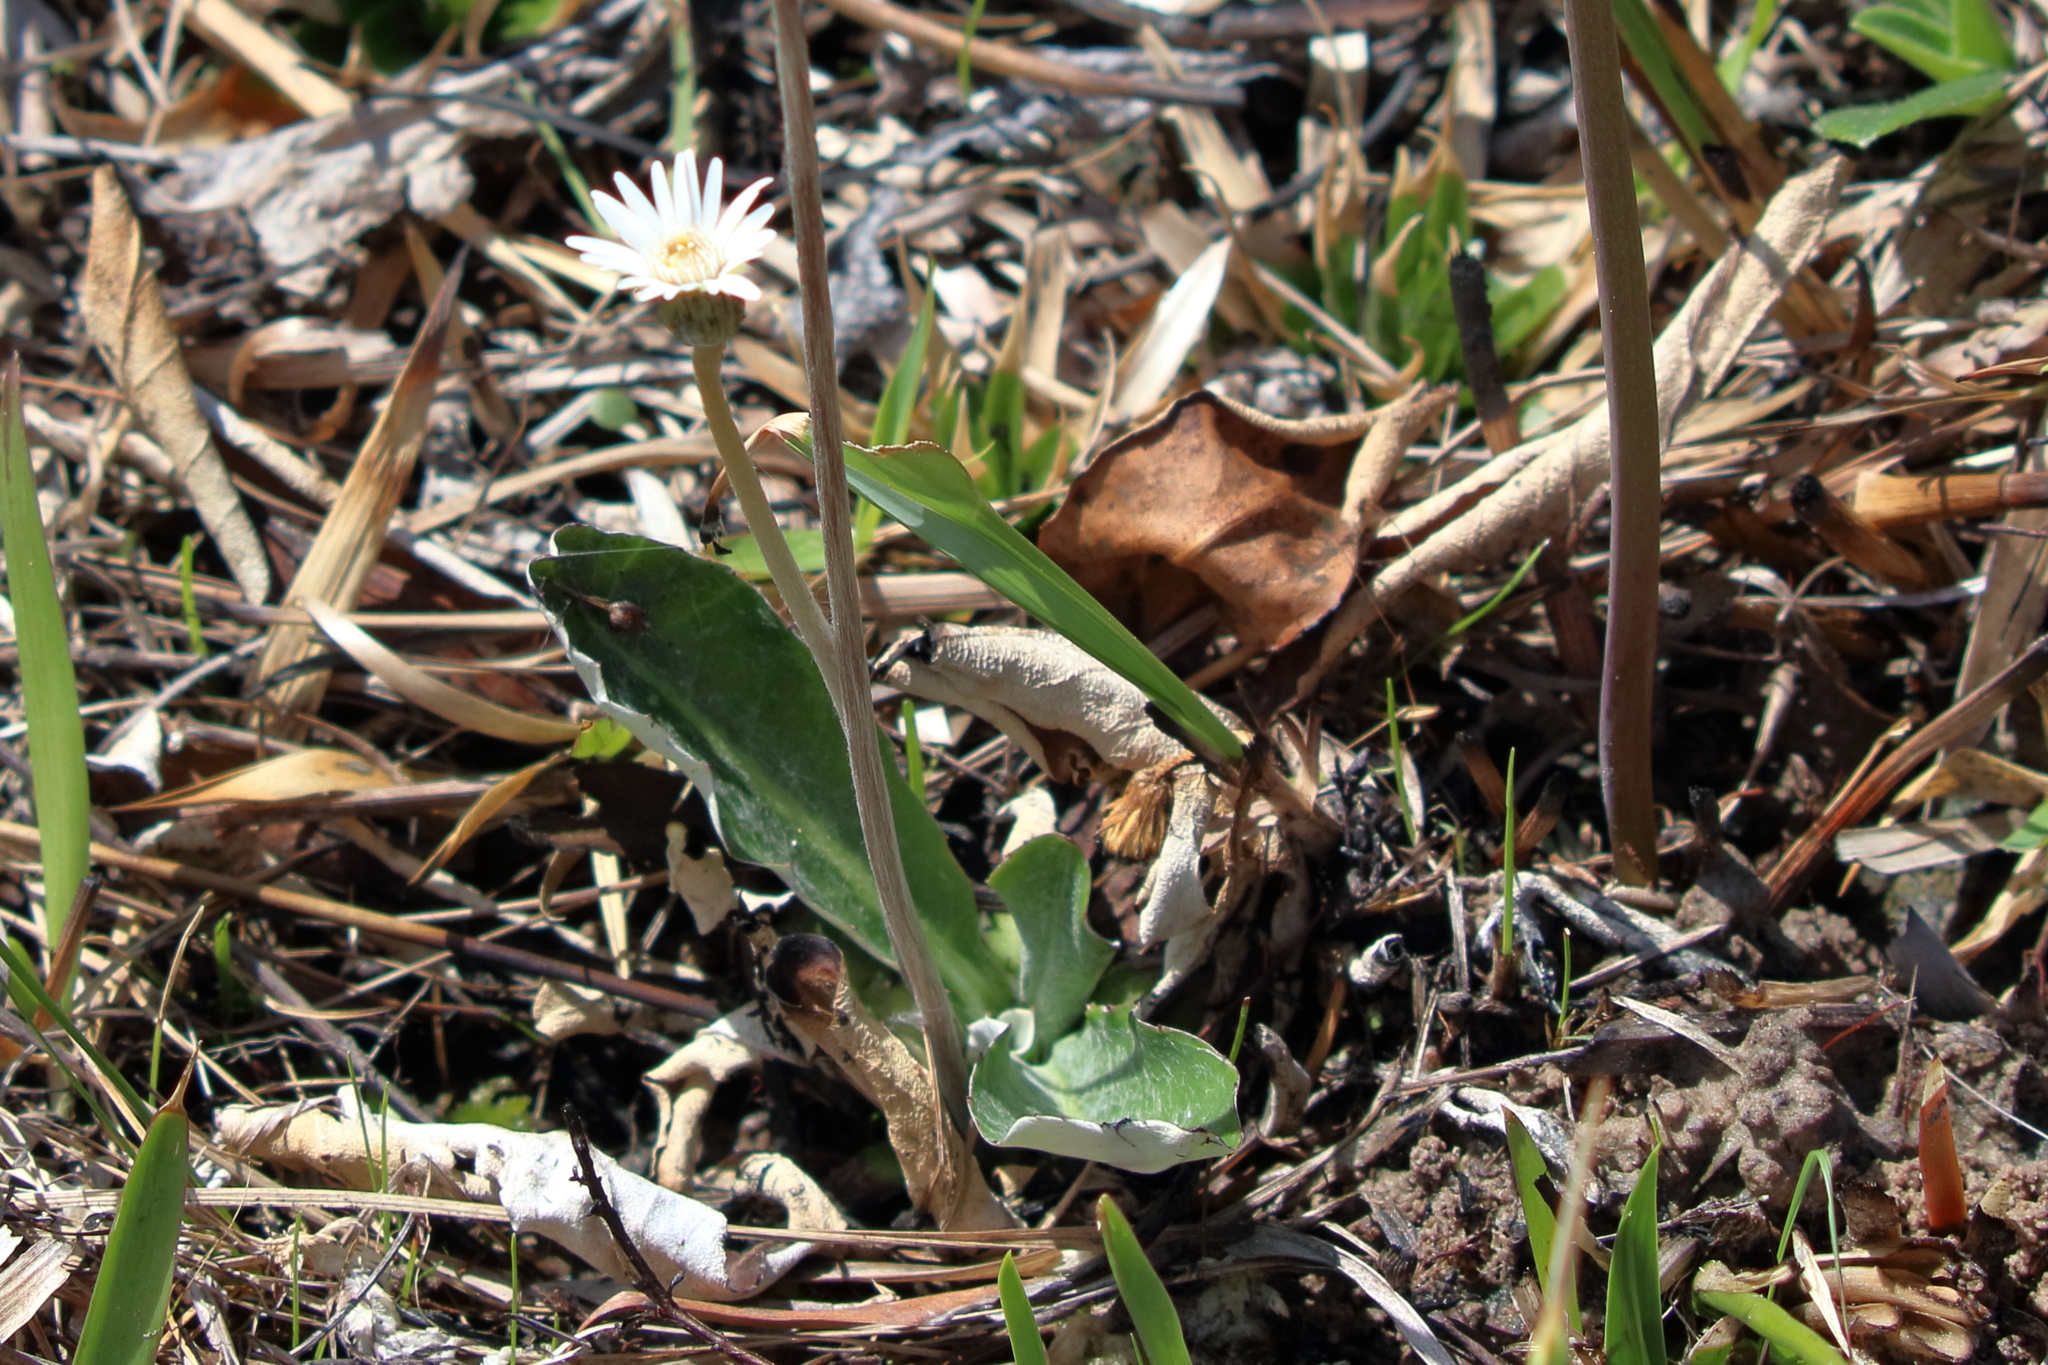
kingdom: Plantae
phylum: Tracheophyta
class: Magnoliopsida
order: Asterales
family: Asteraceae
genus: Chaptalia
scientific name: Chaptalia tomentosa
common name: Woolly sunbonnet
